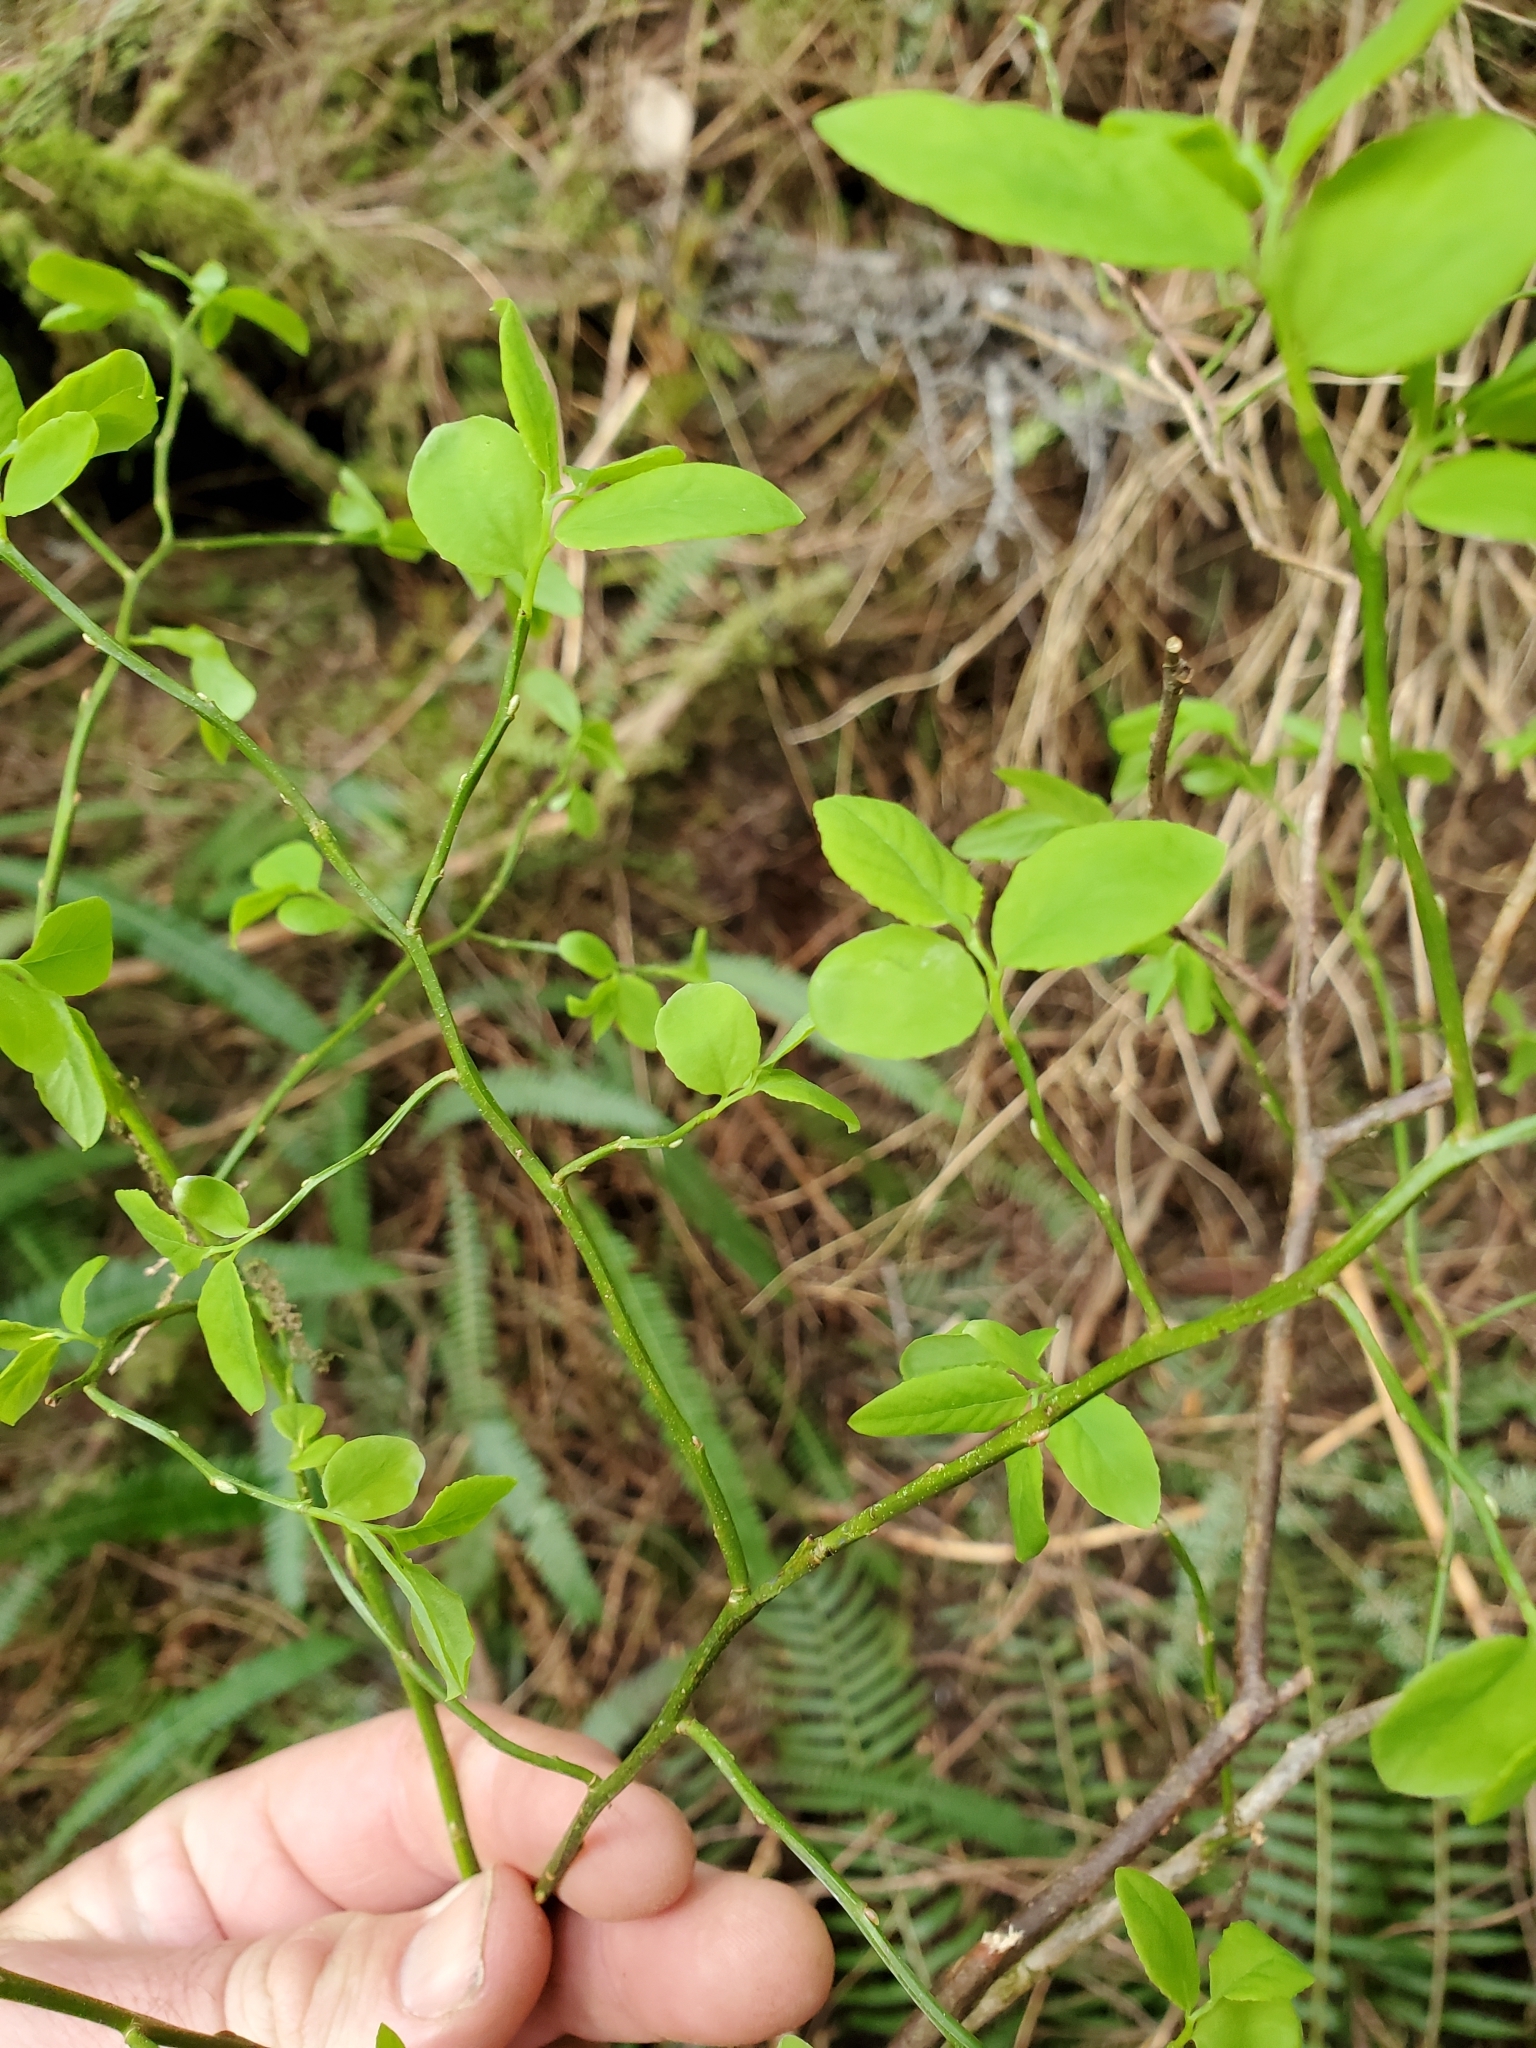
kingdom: Plantae
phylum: Tracheophyta
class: Magnoliopsida
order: Ericales
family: Ericaceae
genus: Vaccinium
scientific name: Vaccinium parvifolium
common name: Red-huckleberry
